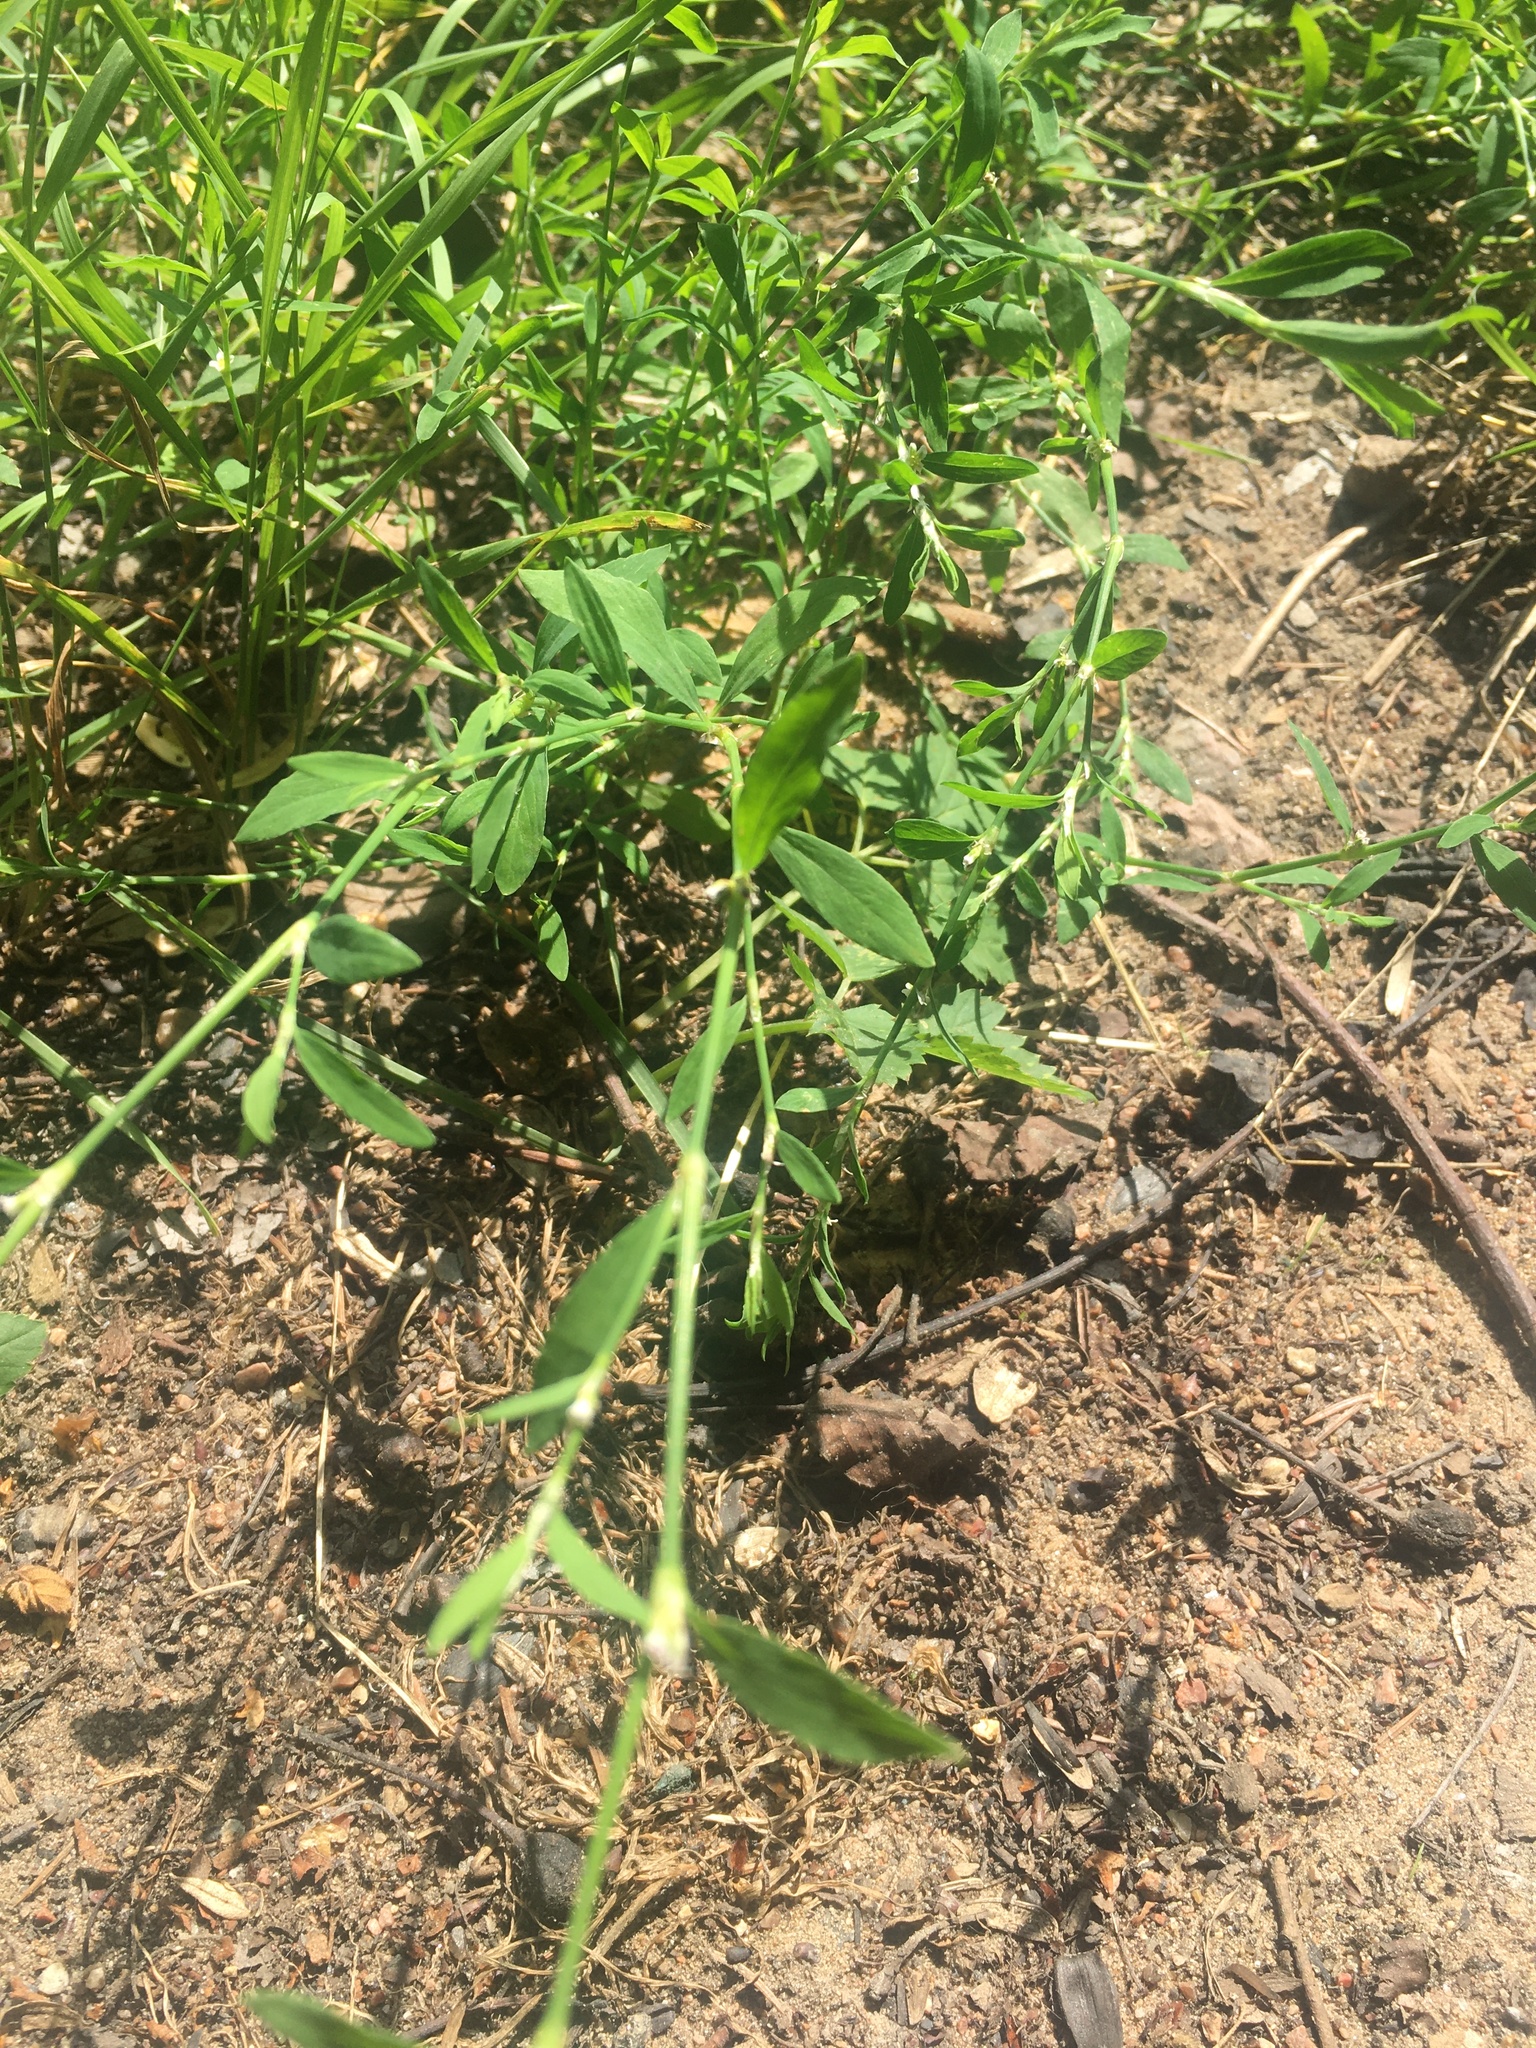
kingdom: Plantae
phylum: Tracheophyta
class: Magnoliopsida
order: Caryophyllales
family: Polygonaceae
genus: Polygonum
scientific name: Polygonum
